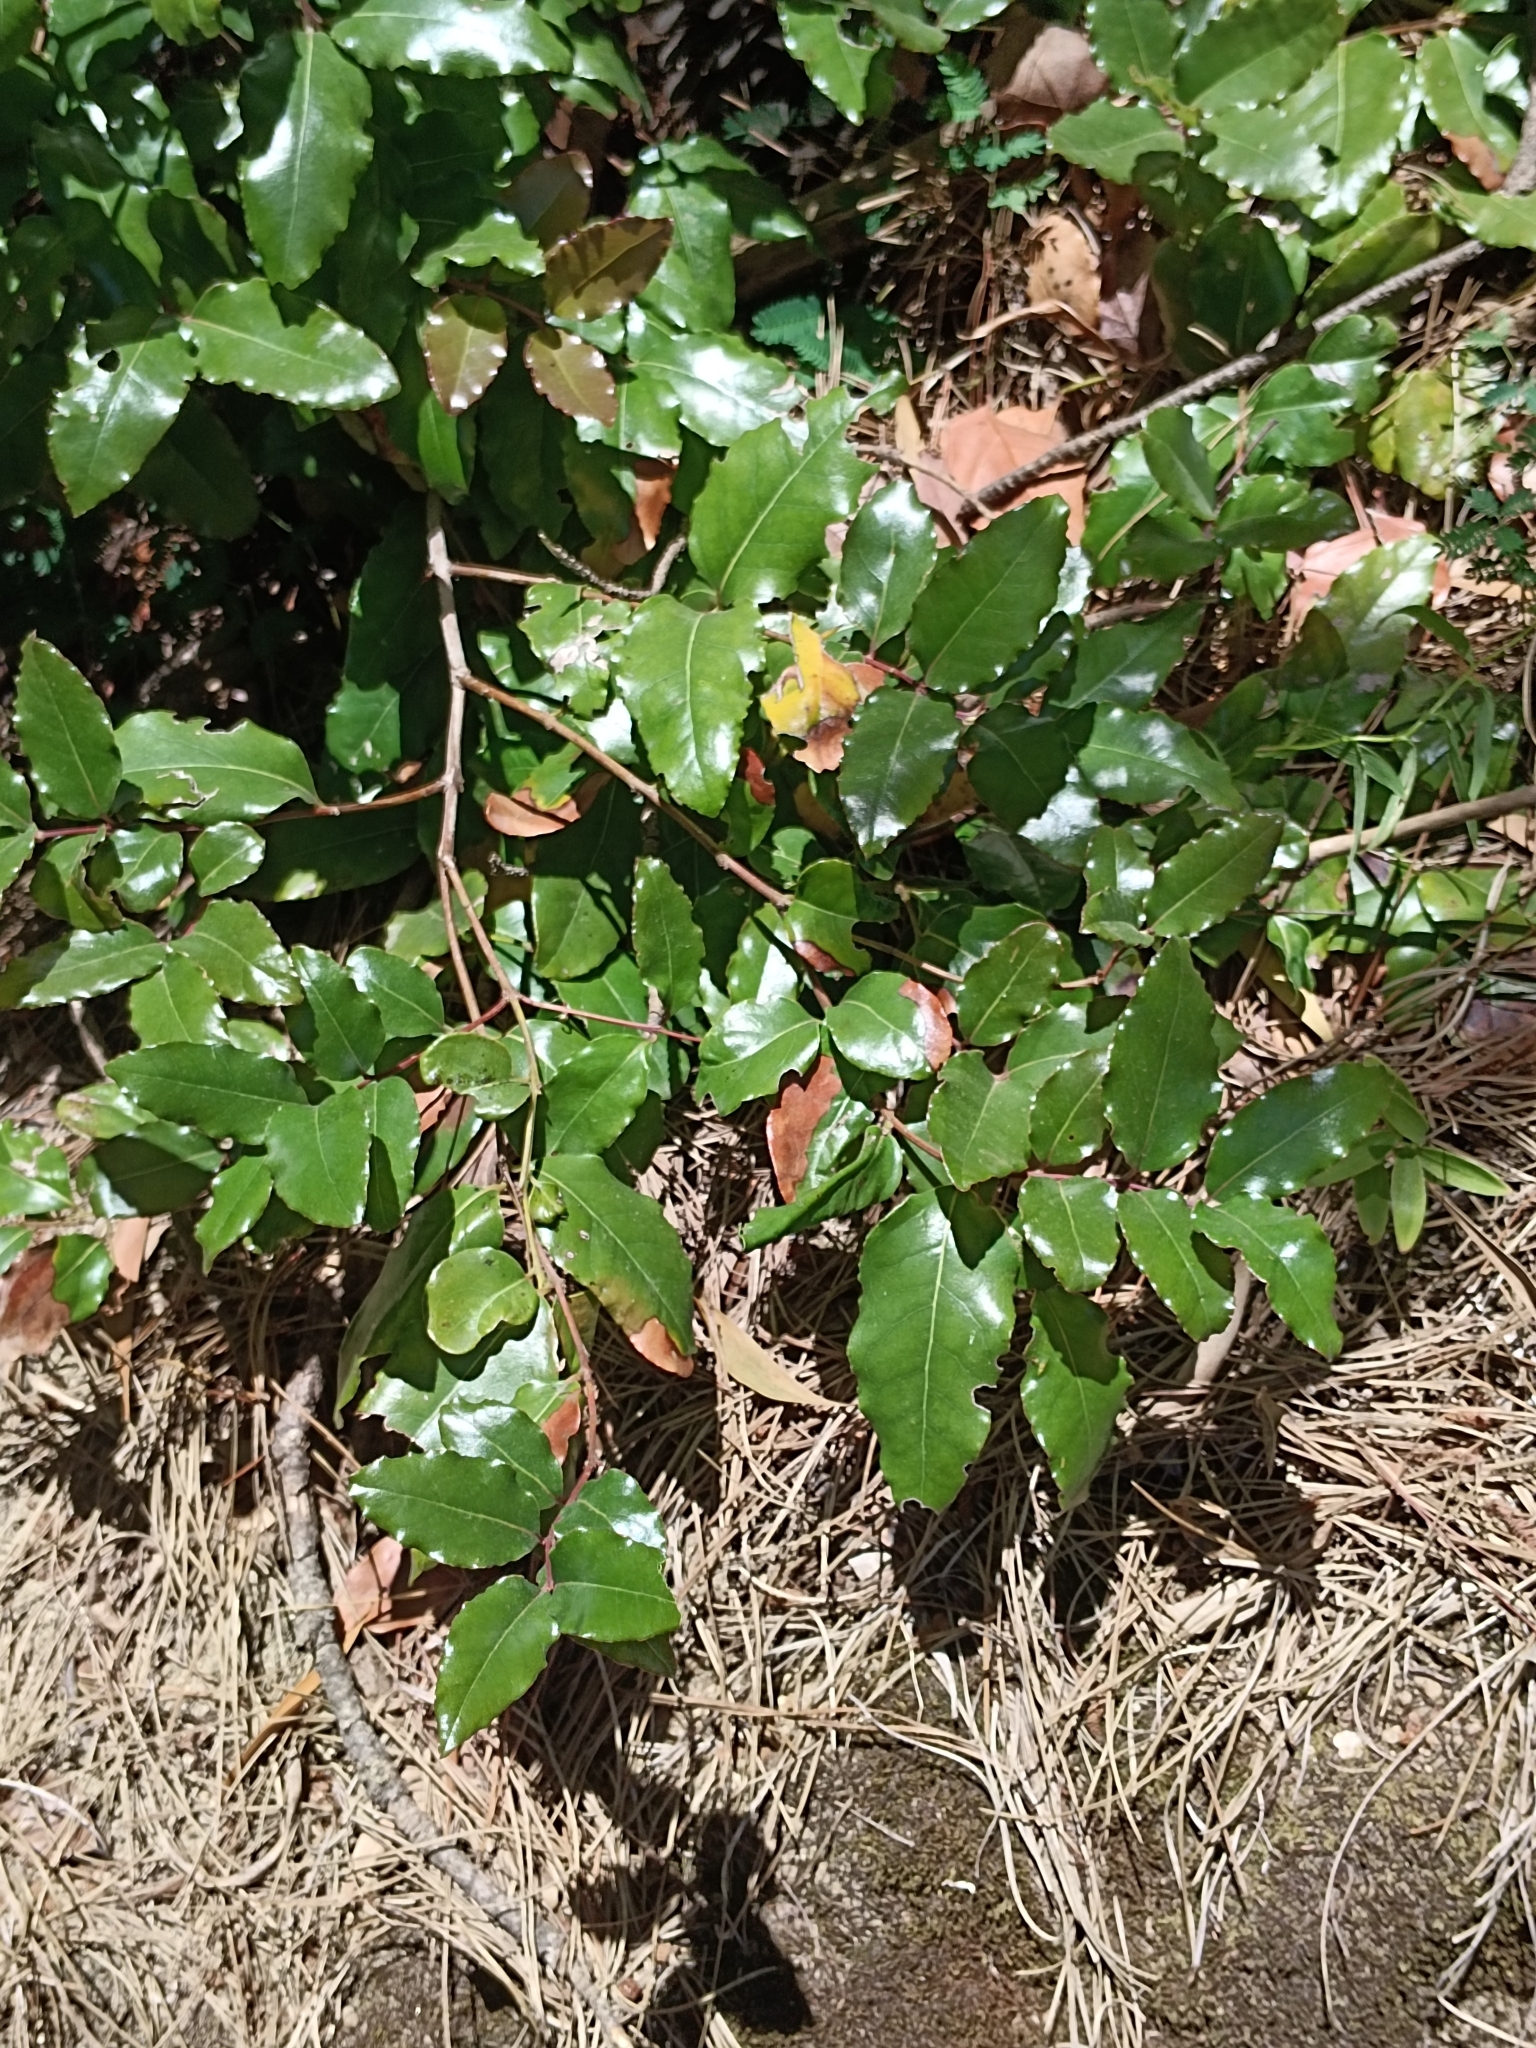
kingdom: Plantae
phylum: Tracheophyta
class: Magnoliopsida
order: Laurales
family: Lauraceae
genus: Cryptocarya
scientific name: Cryptocarya alba
